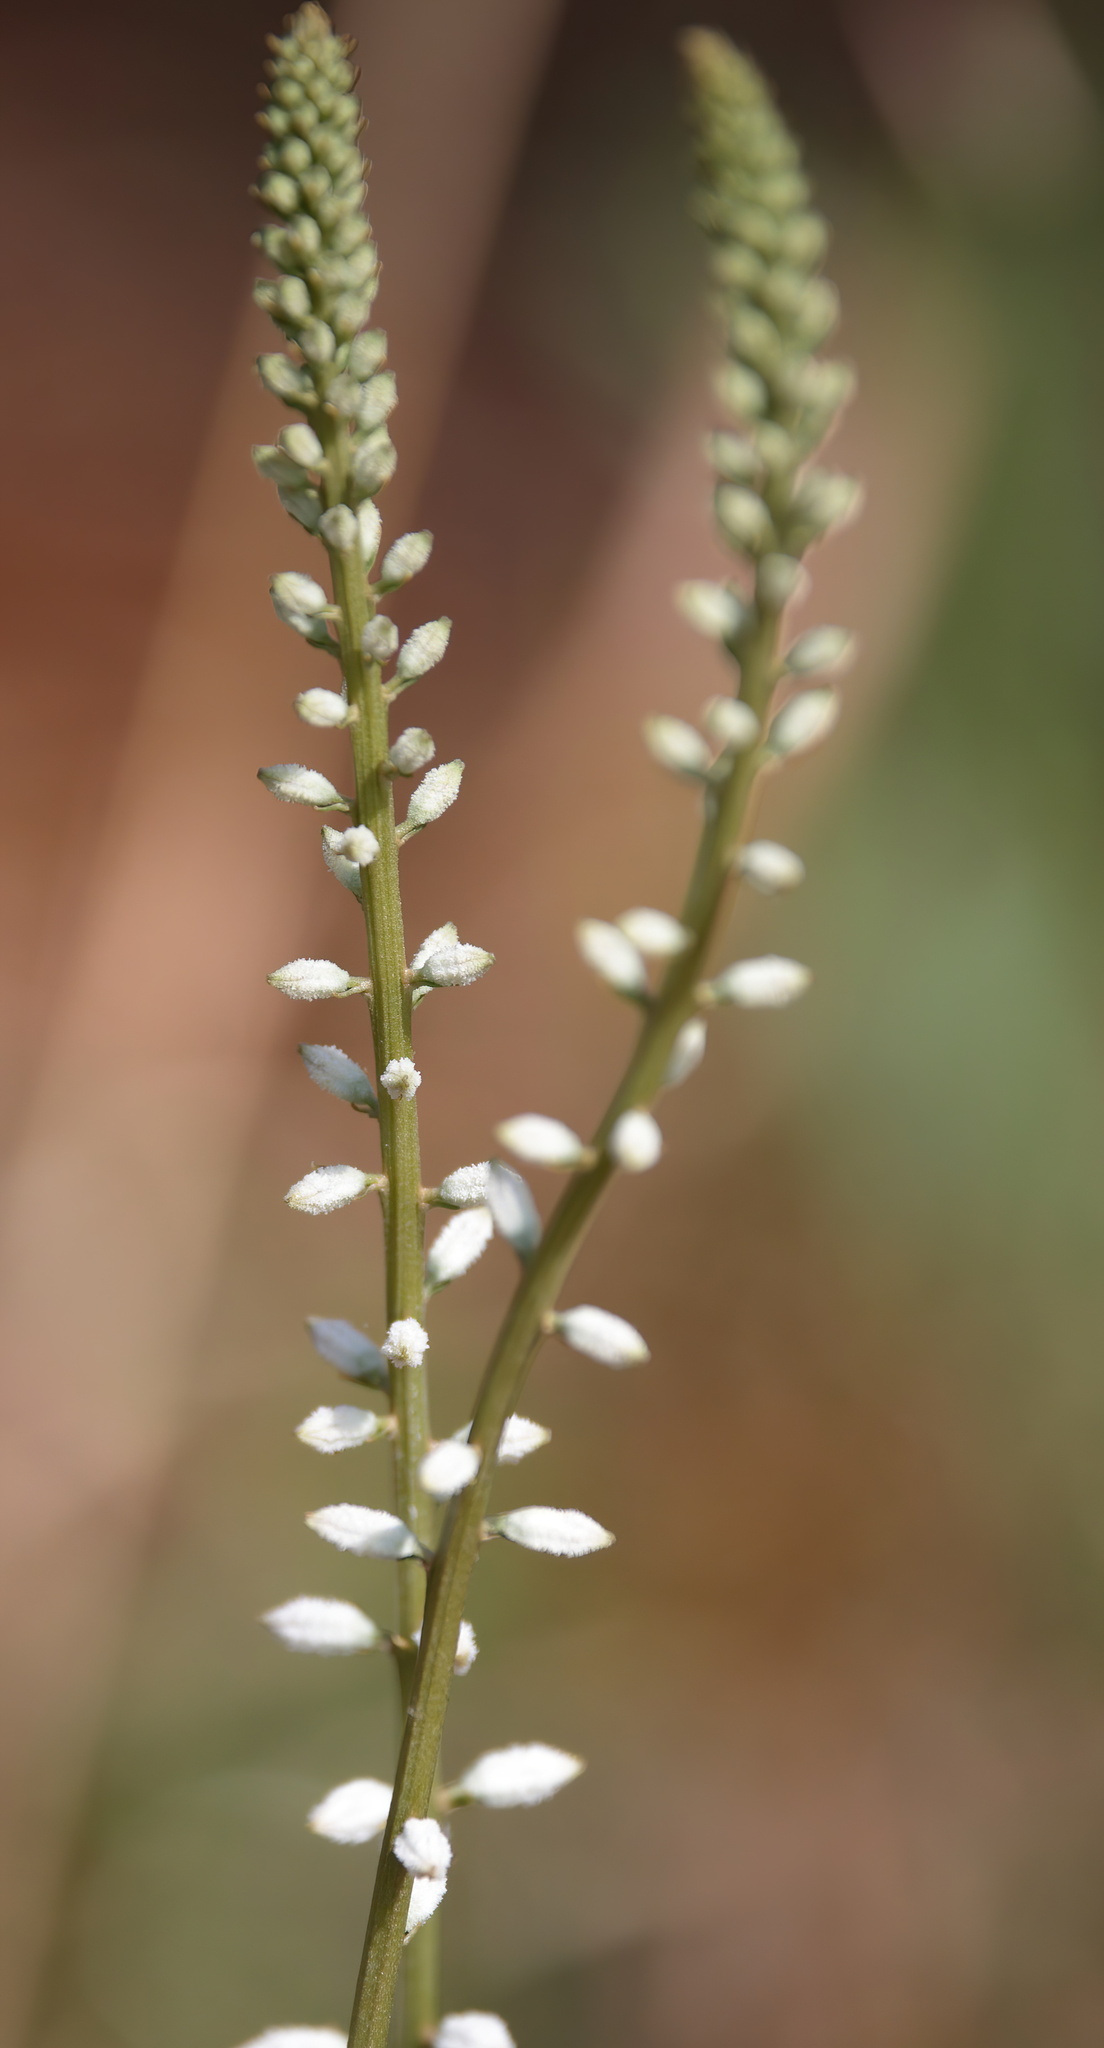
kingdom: Plantae
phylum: Tracheophyta
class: Liliopsida
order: Dioscoreales
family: Nartheciaceae
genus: Aletris
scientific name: Aletris farinosa
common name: Colicroot
